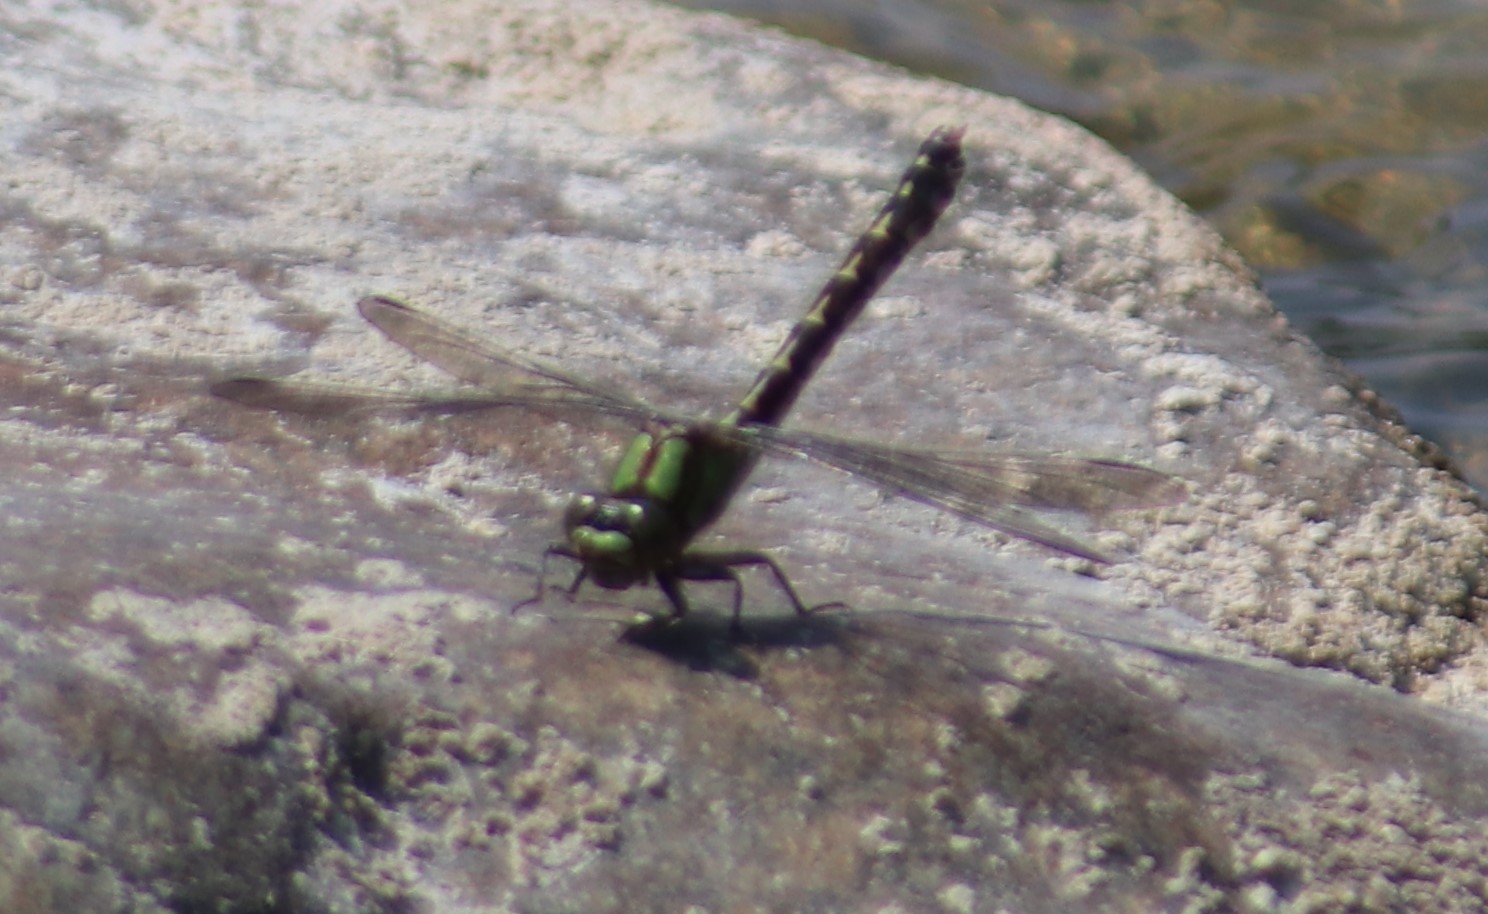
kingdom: Animalia
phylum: Arthropoda
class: Insecta
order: Odonata
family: Gomphidae
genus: Ophiogomphus
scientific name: Ophiogomphus colubrinus
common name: Boreal snaketail
